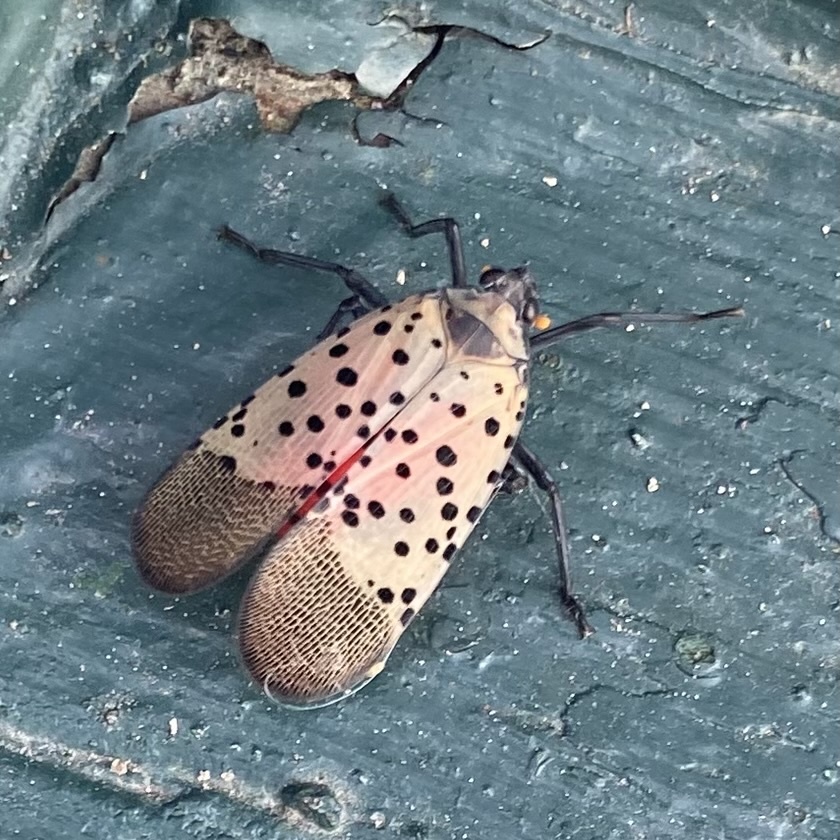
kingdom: Animalia
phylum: Arthropoda
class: Insecta
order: Hemiptera
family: Fulgoridae
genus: Lycorma
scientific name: Lycorma delicatula
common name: Spotted lanternfly
